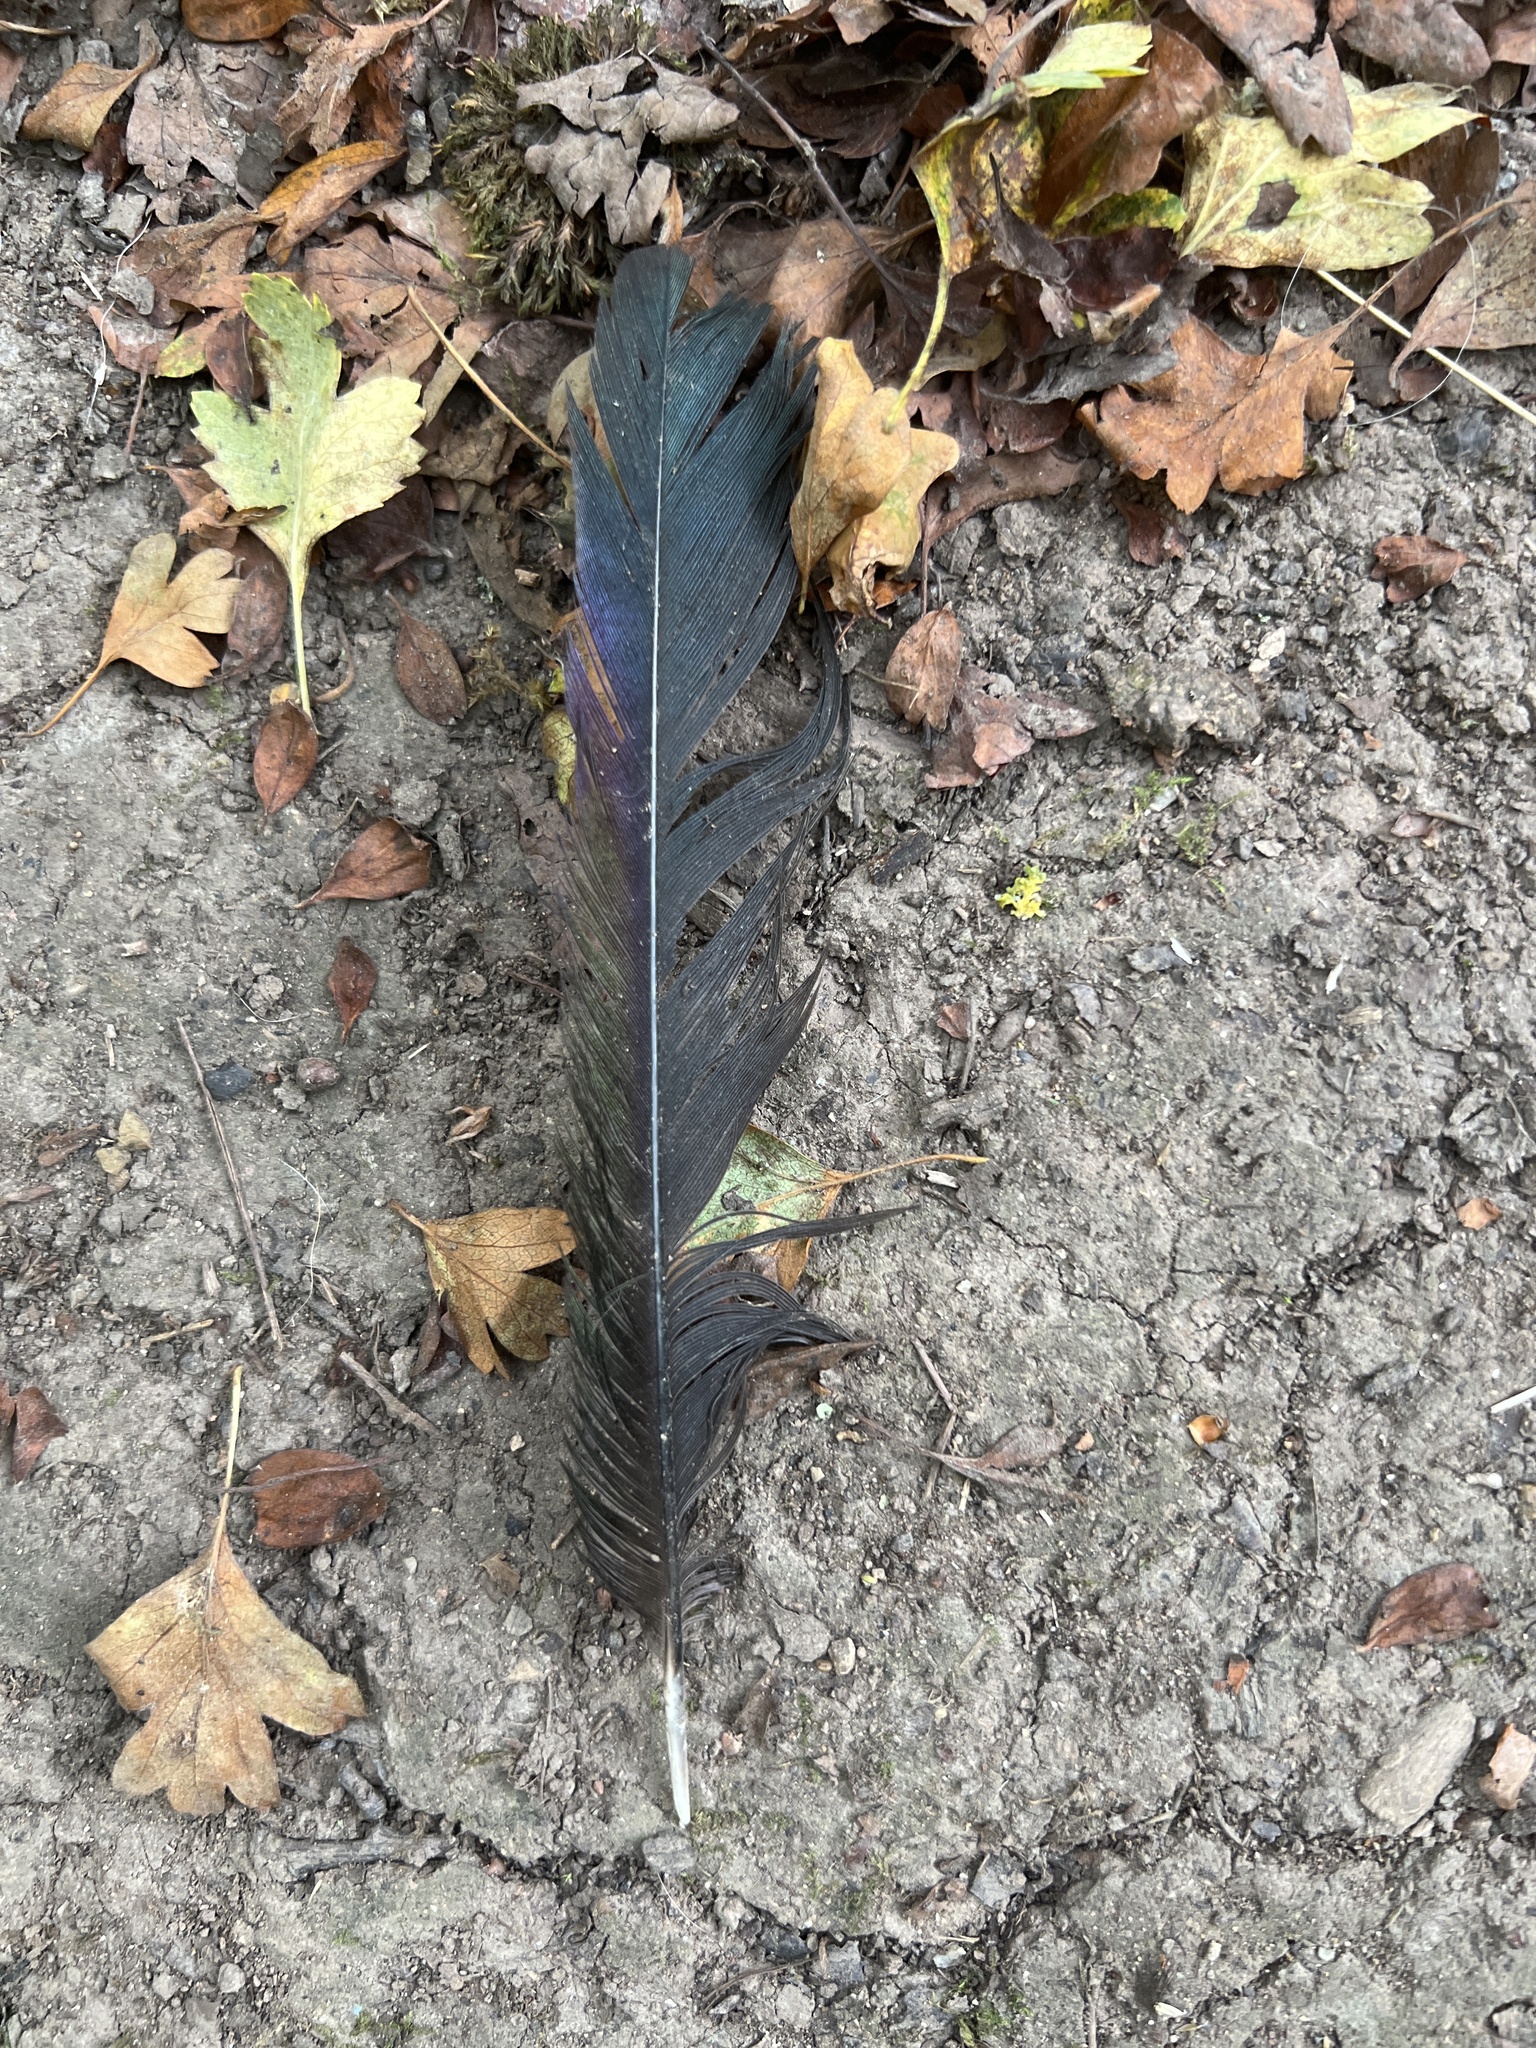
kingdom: Animalia
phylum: Chordata
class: Aves
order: Passeriformes
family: Corvidae
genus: Pica
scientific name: Pica pica
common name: Eurasian magpie
